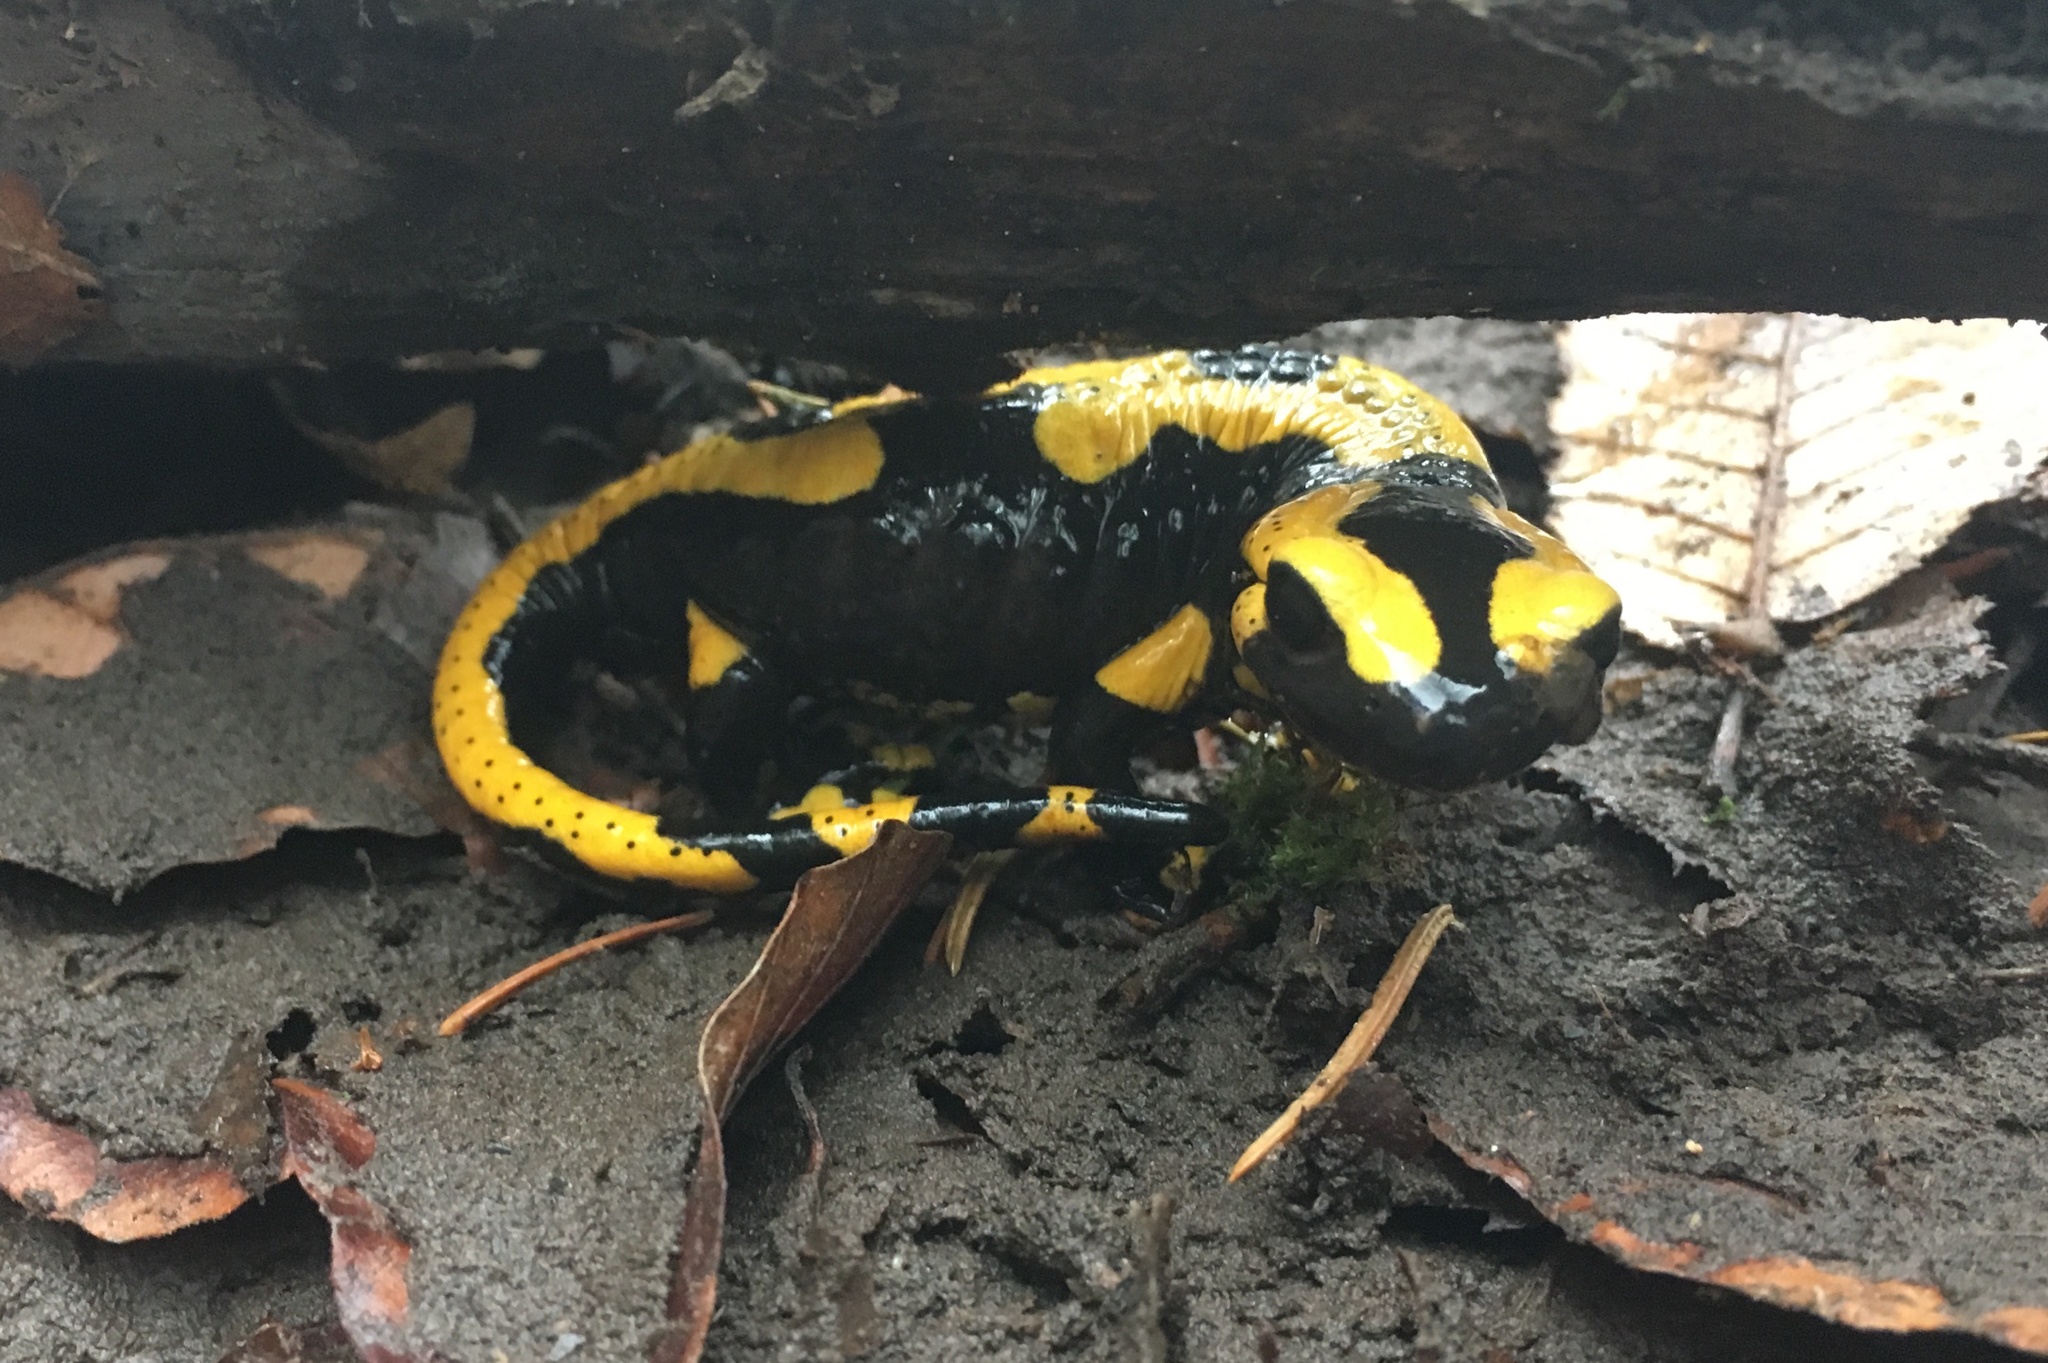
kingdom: Animalia
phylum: Chordata
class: Amphibia
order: Caudata
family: Salamandridae
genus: Salamandra
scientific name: Salamandra salamandra
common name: Fire salamander
